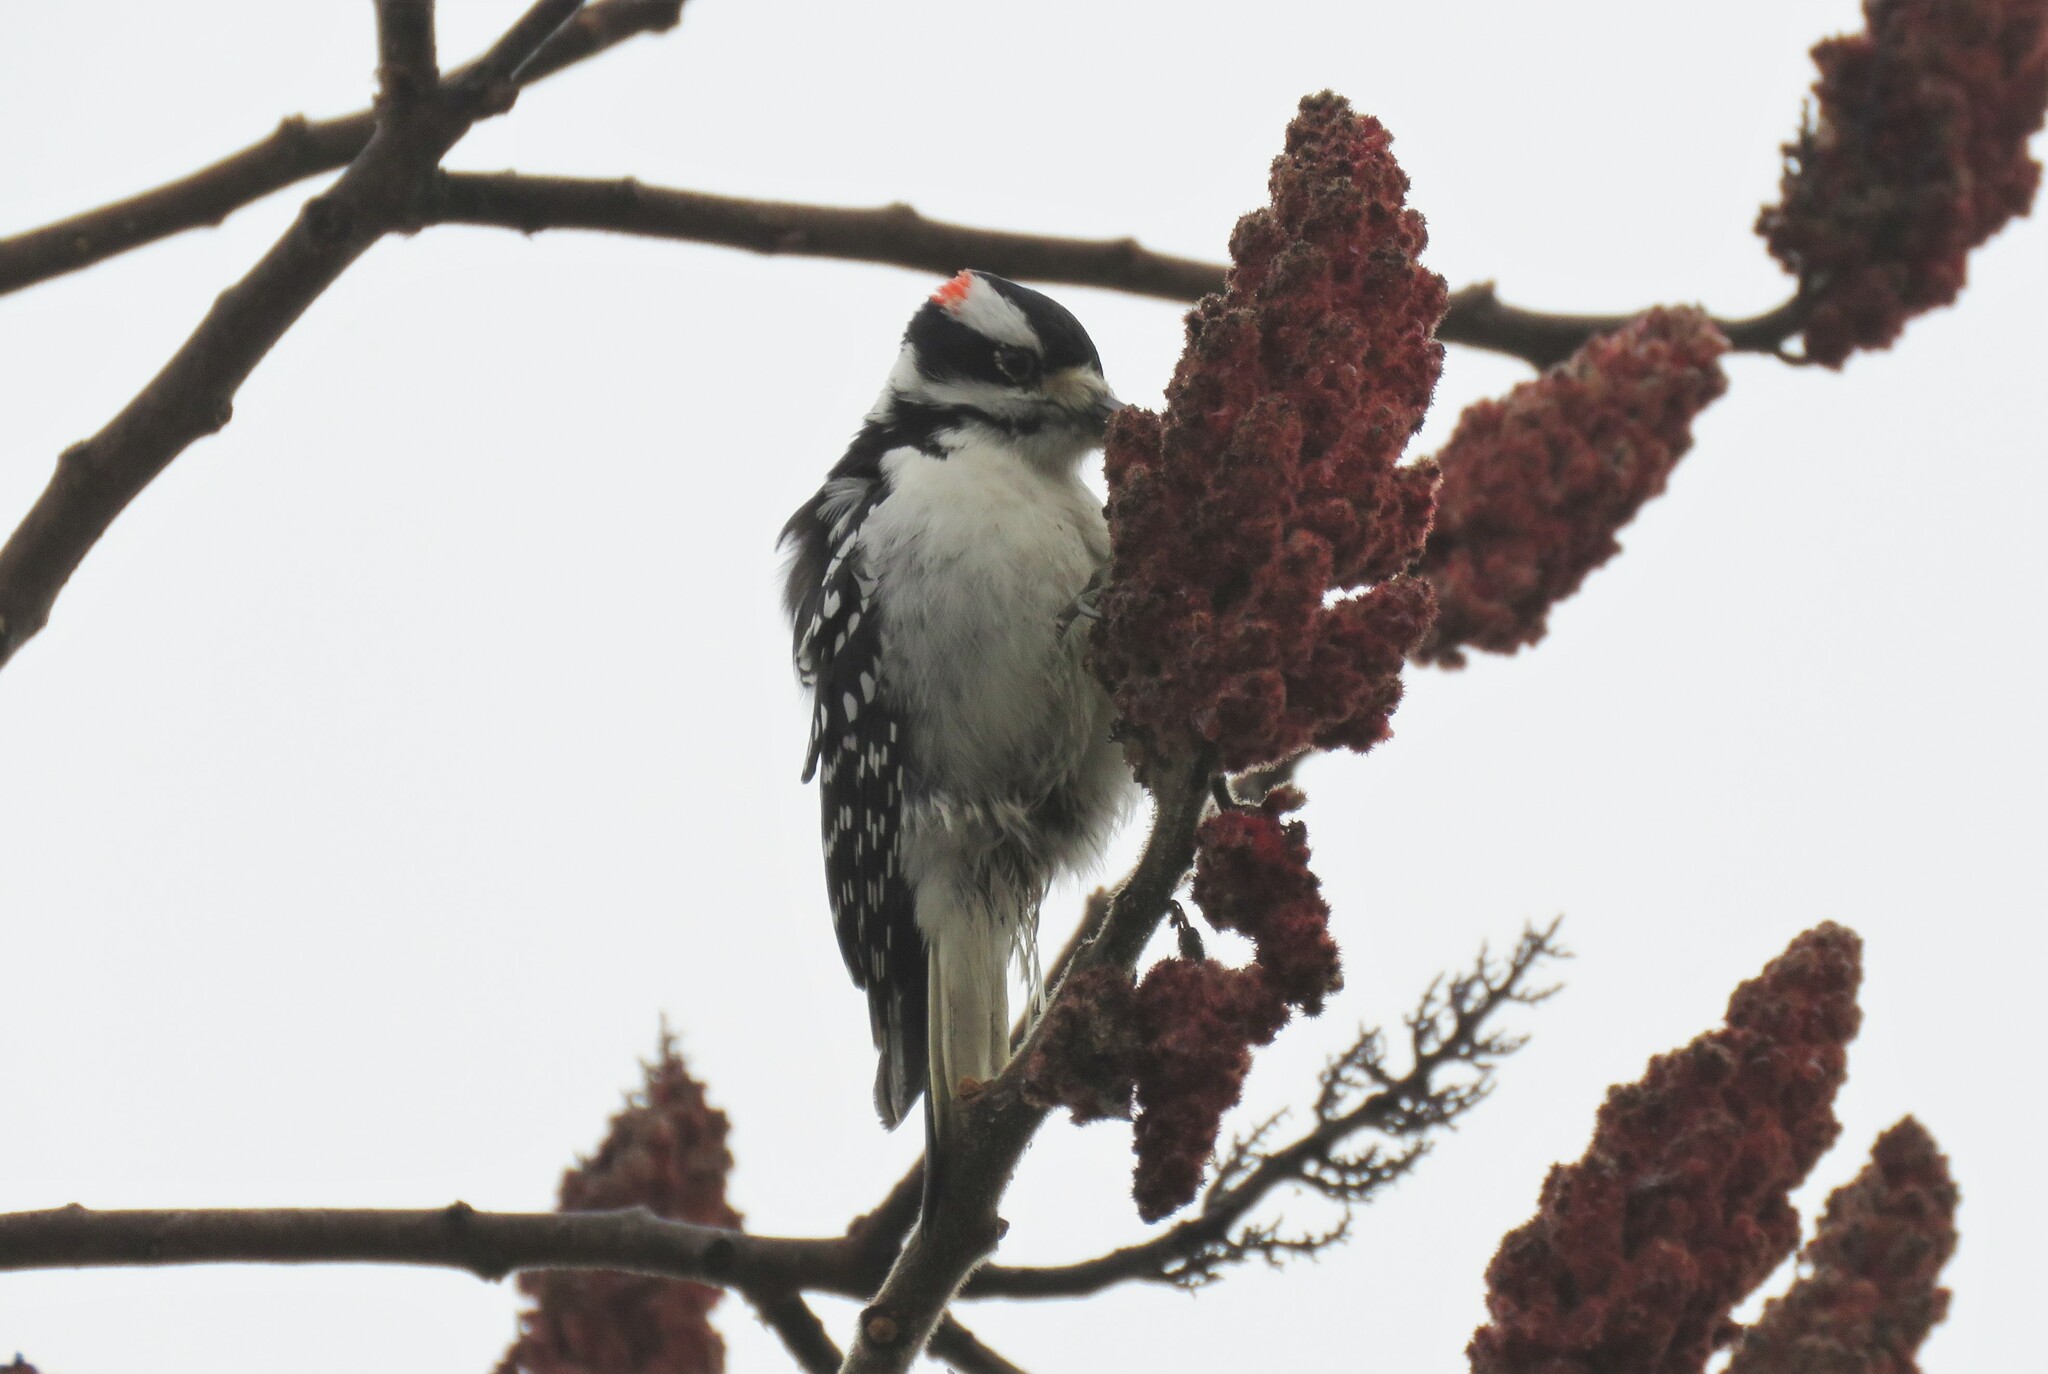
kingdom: Animalia
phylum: Chordata
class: Aves
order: Piciformes
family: Picidae
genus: Leuconotopicus
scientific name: Leuconotopicus villosus
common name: Hairy woodpecker
